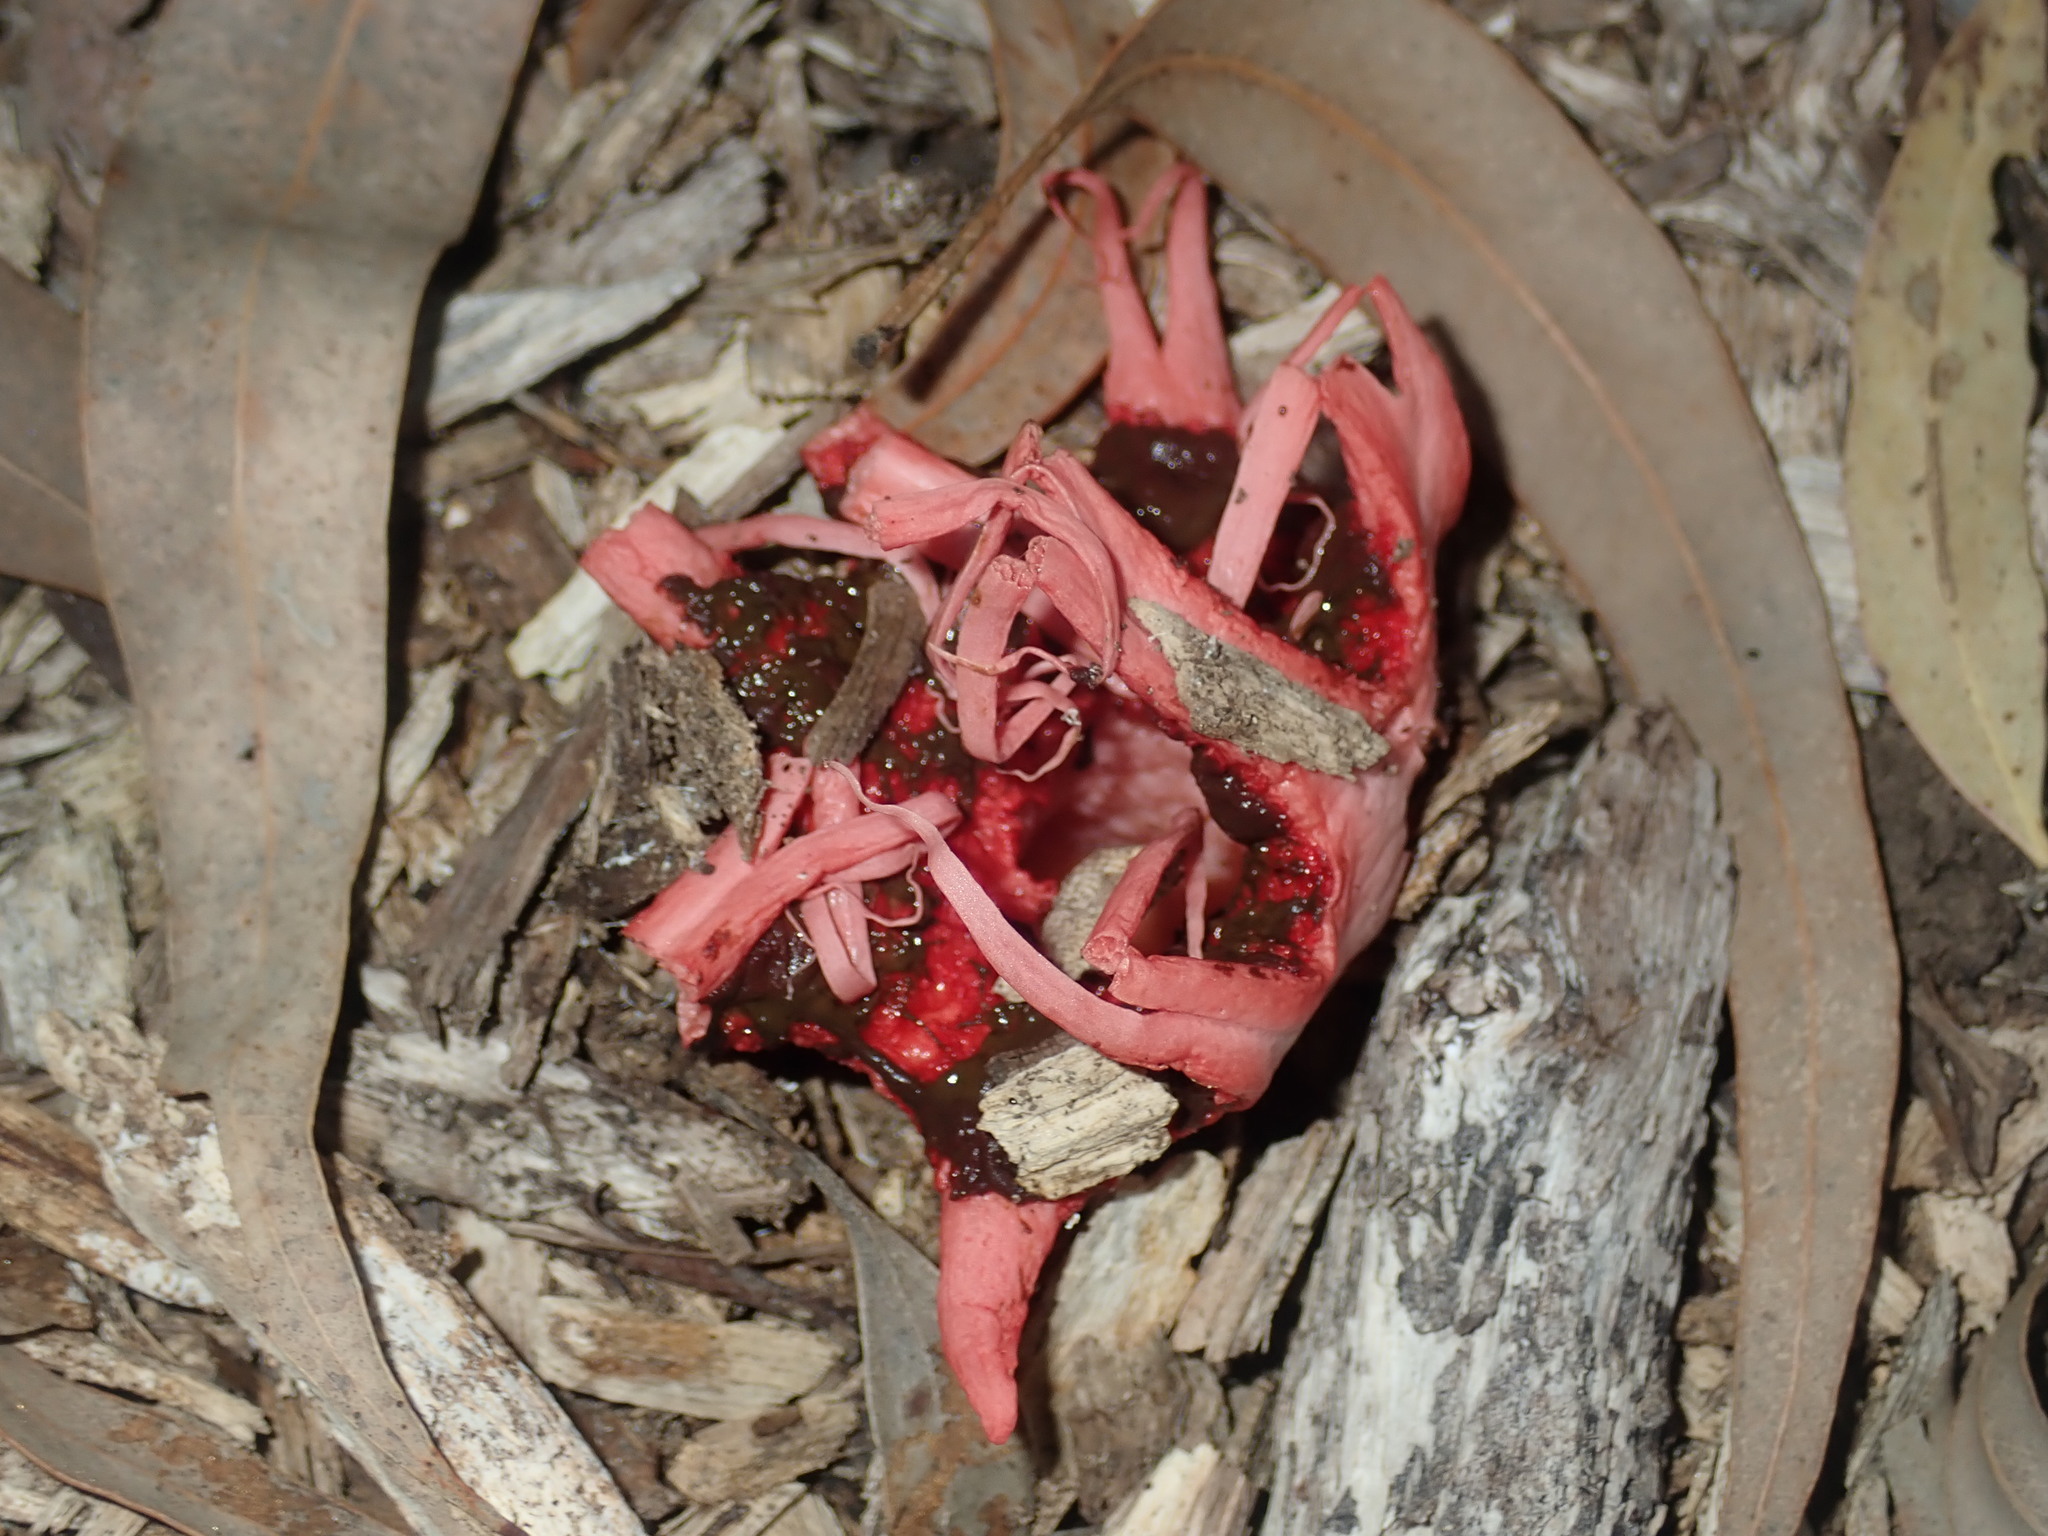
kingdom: Fungi
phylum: Basidiomycota
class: Agaricomycetes
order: Phallales
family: Phallaceae
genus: Aseroe
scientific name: Aseroe rubra
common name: Starfish fungus
